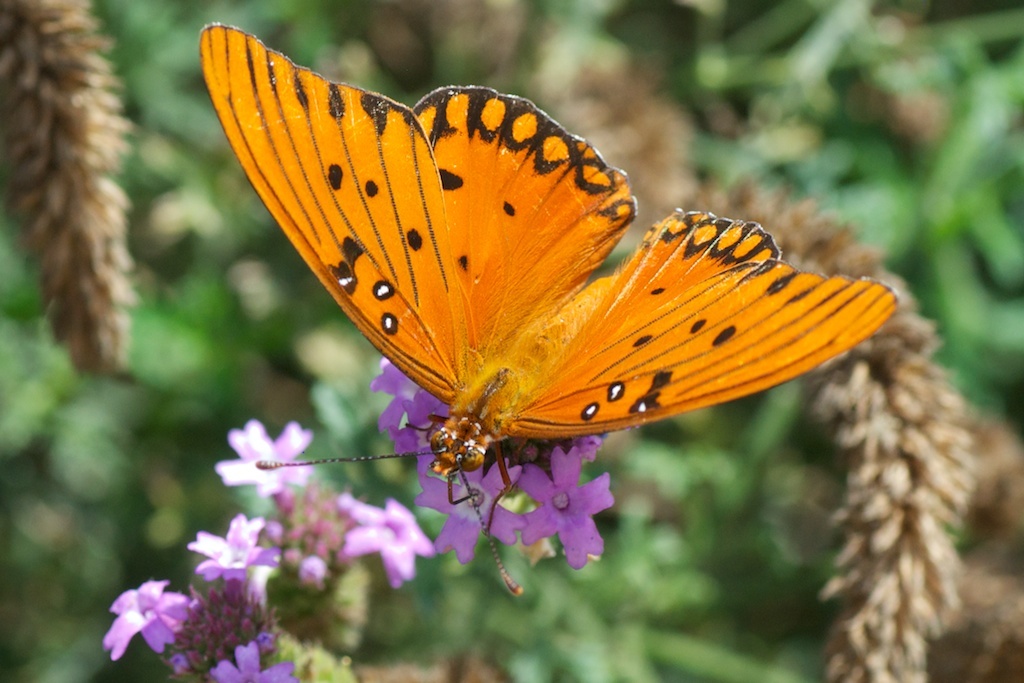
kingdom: Animalia
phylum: Arthropoda
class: Insecta
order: Lepidoptera
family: Nymphalidae
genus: Dione
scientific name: Dione vanillae
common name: Gulf fritillary
